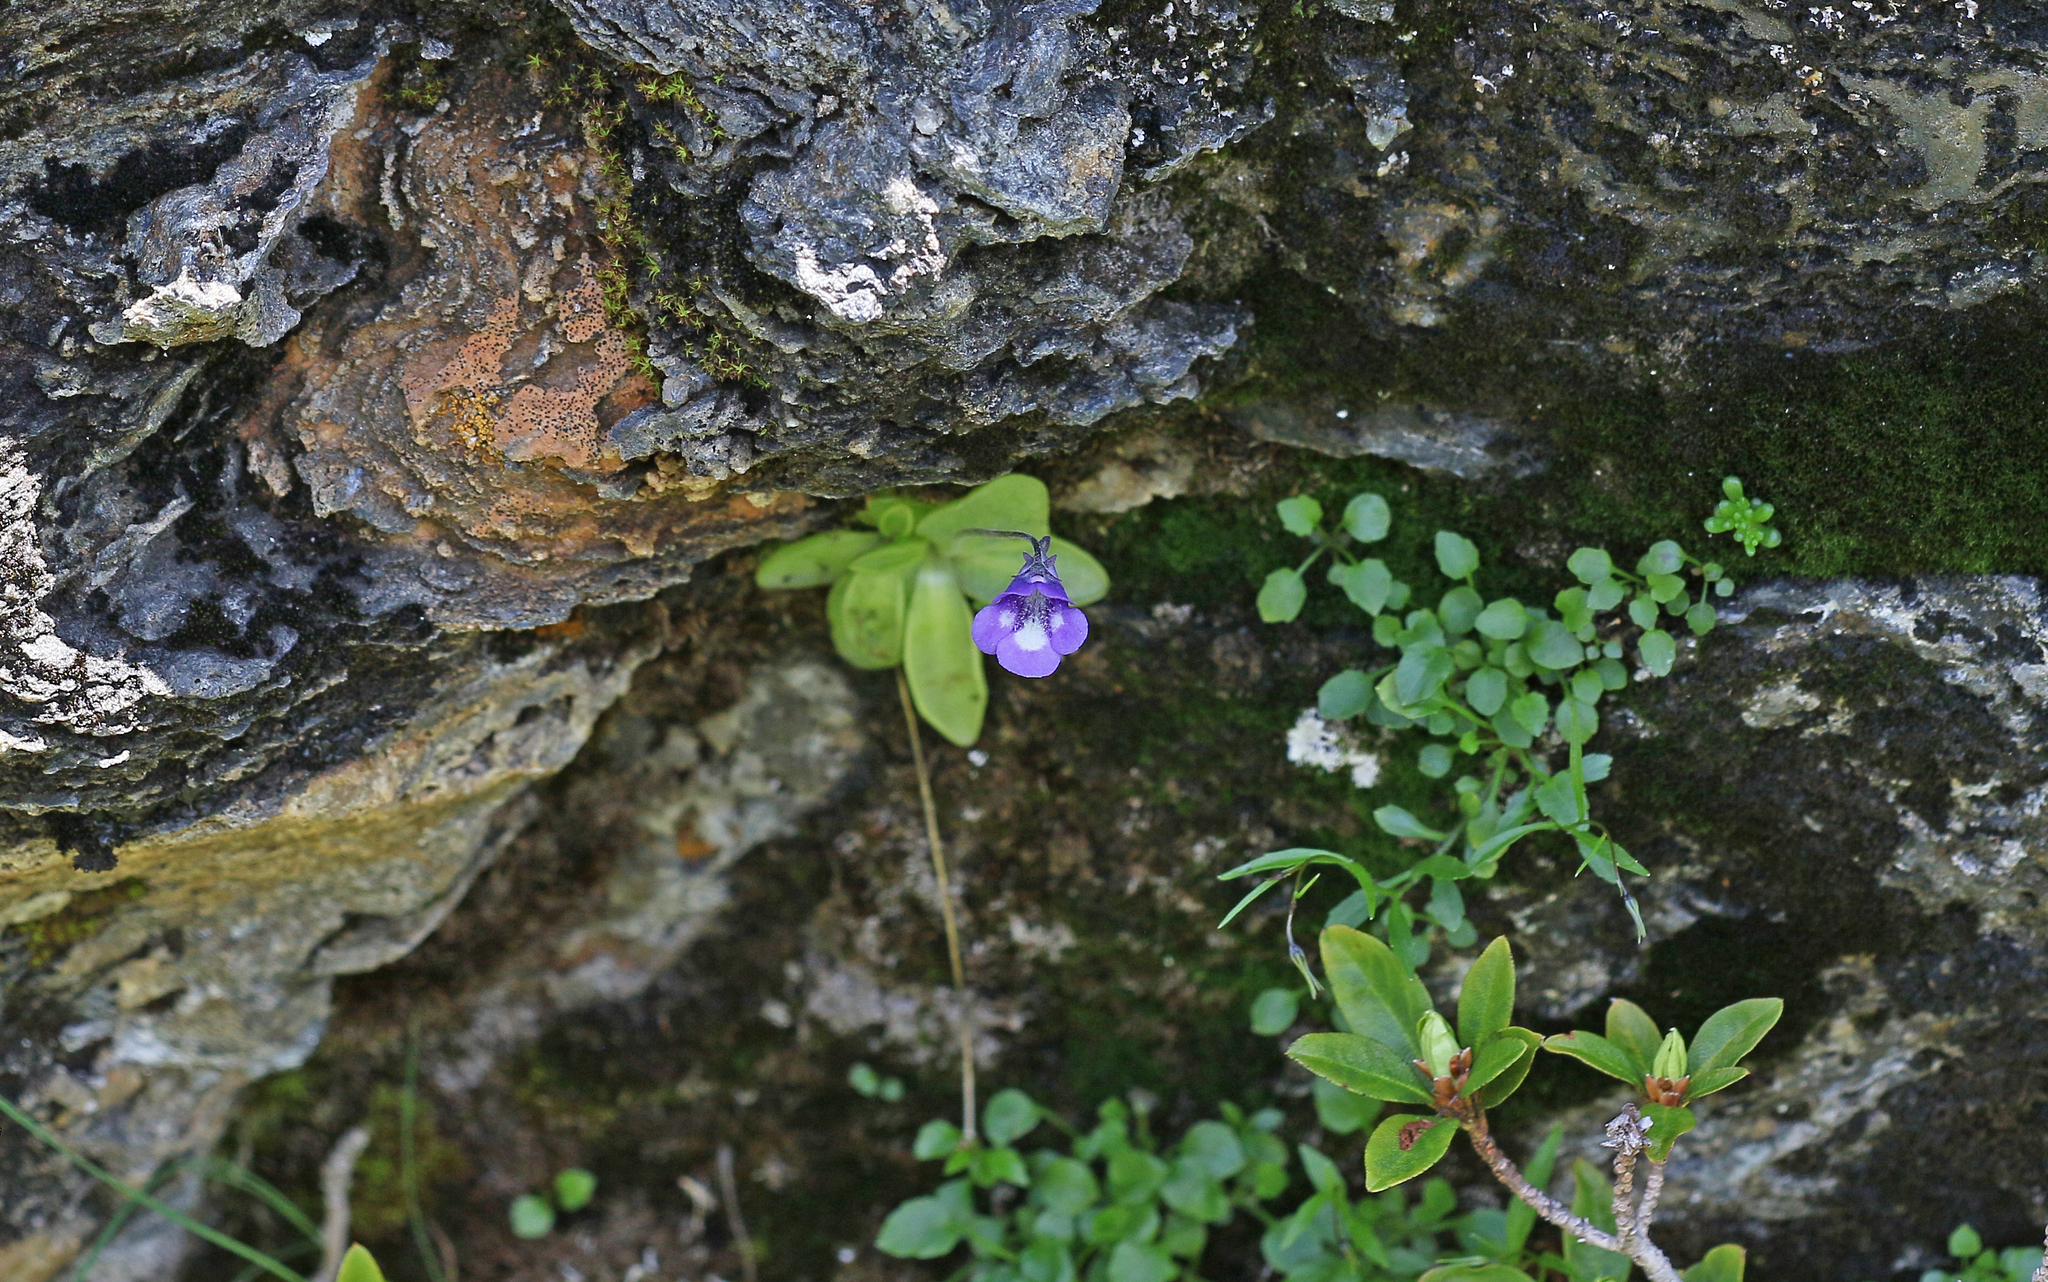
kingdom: Plantae
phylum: Tracheophyta
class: Magnoliopsida
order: Lamiales
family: Lentibulariaceae
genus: Pinguicula
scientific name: Pinguicula leptoceras
